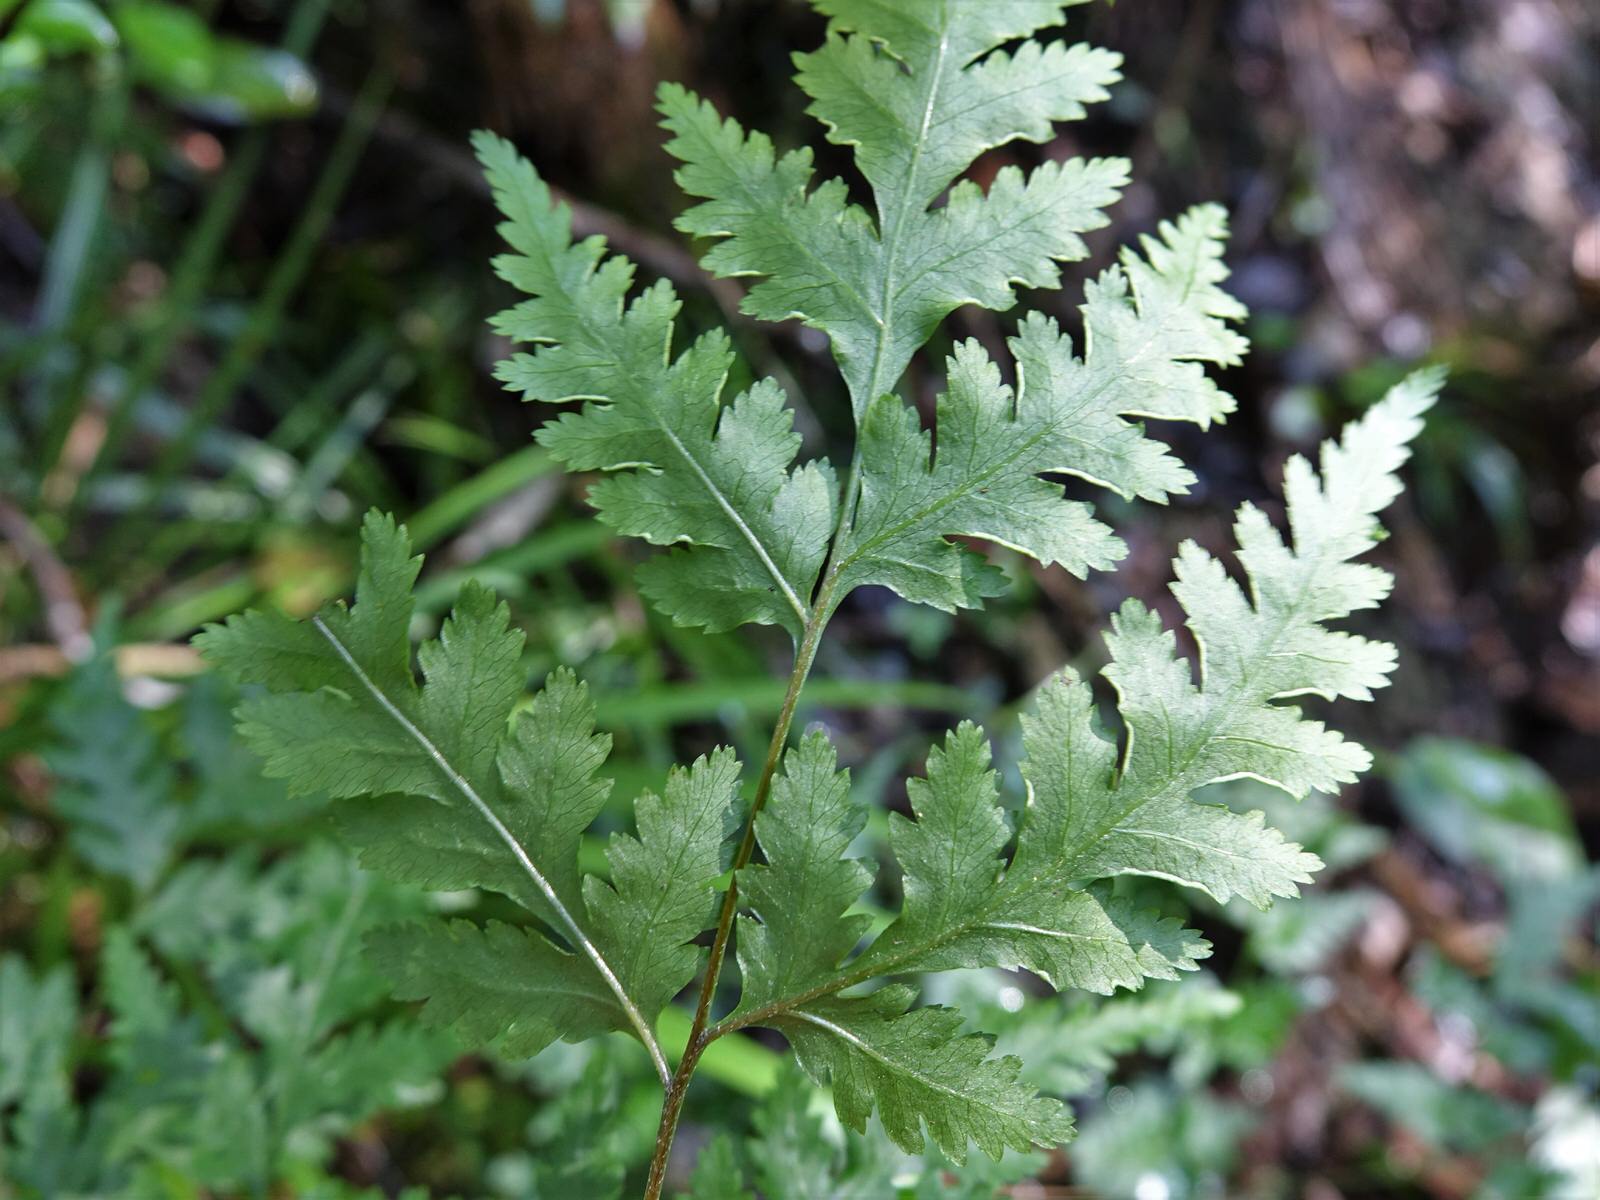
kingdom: Plantae
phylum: Tracheophyta
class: Polypodiopsida
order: Polypodiales
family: Pteridaceae
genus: Pteris
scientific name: Pteris macilenta
